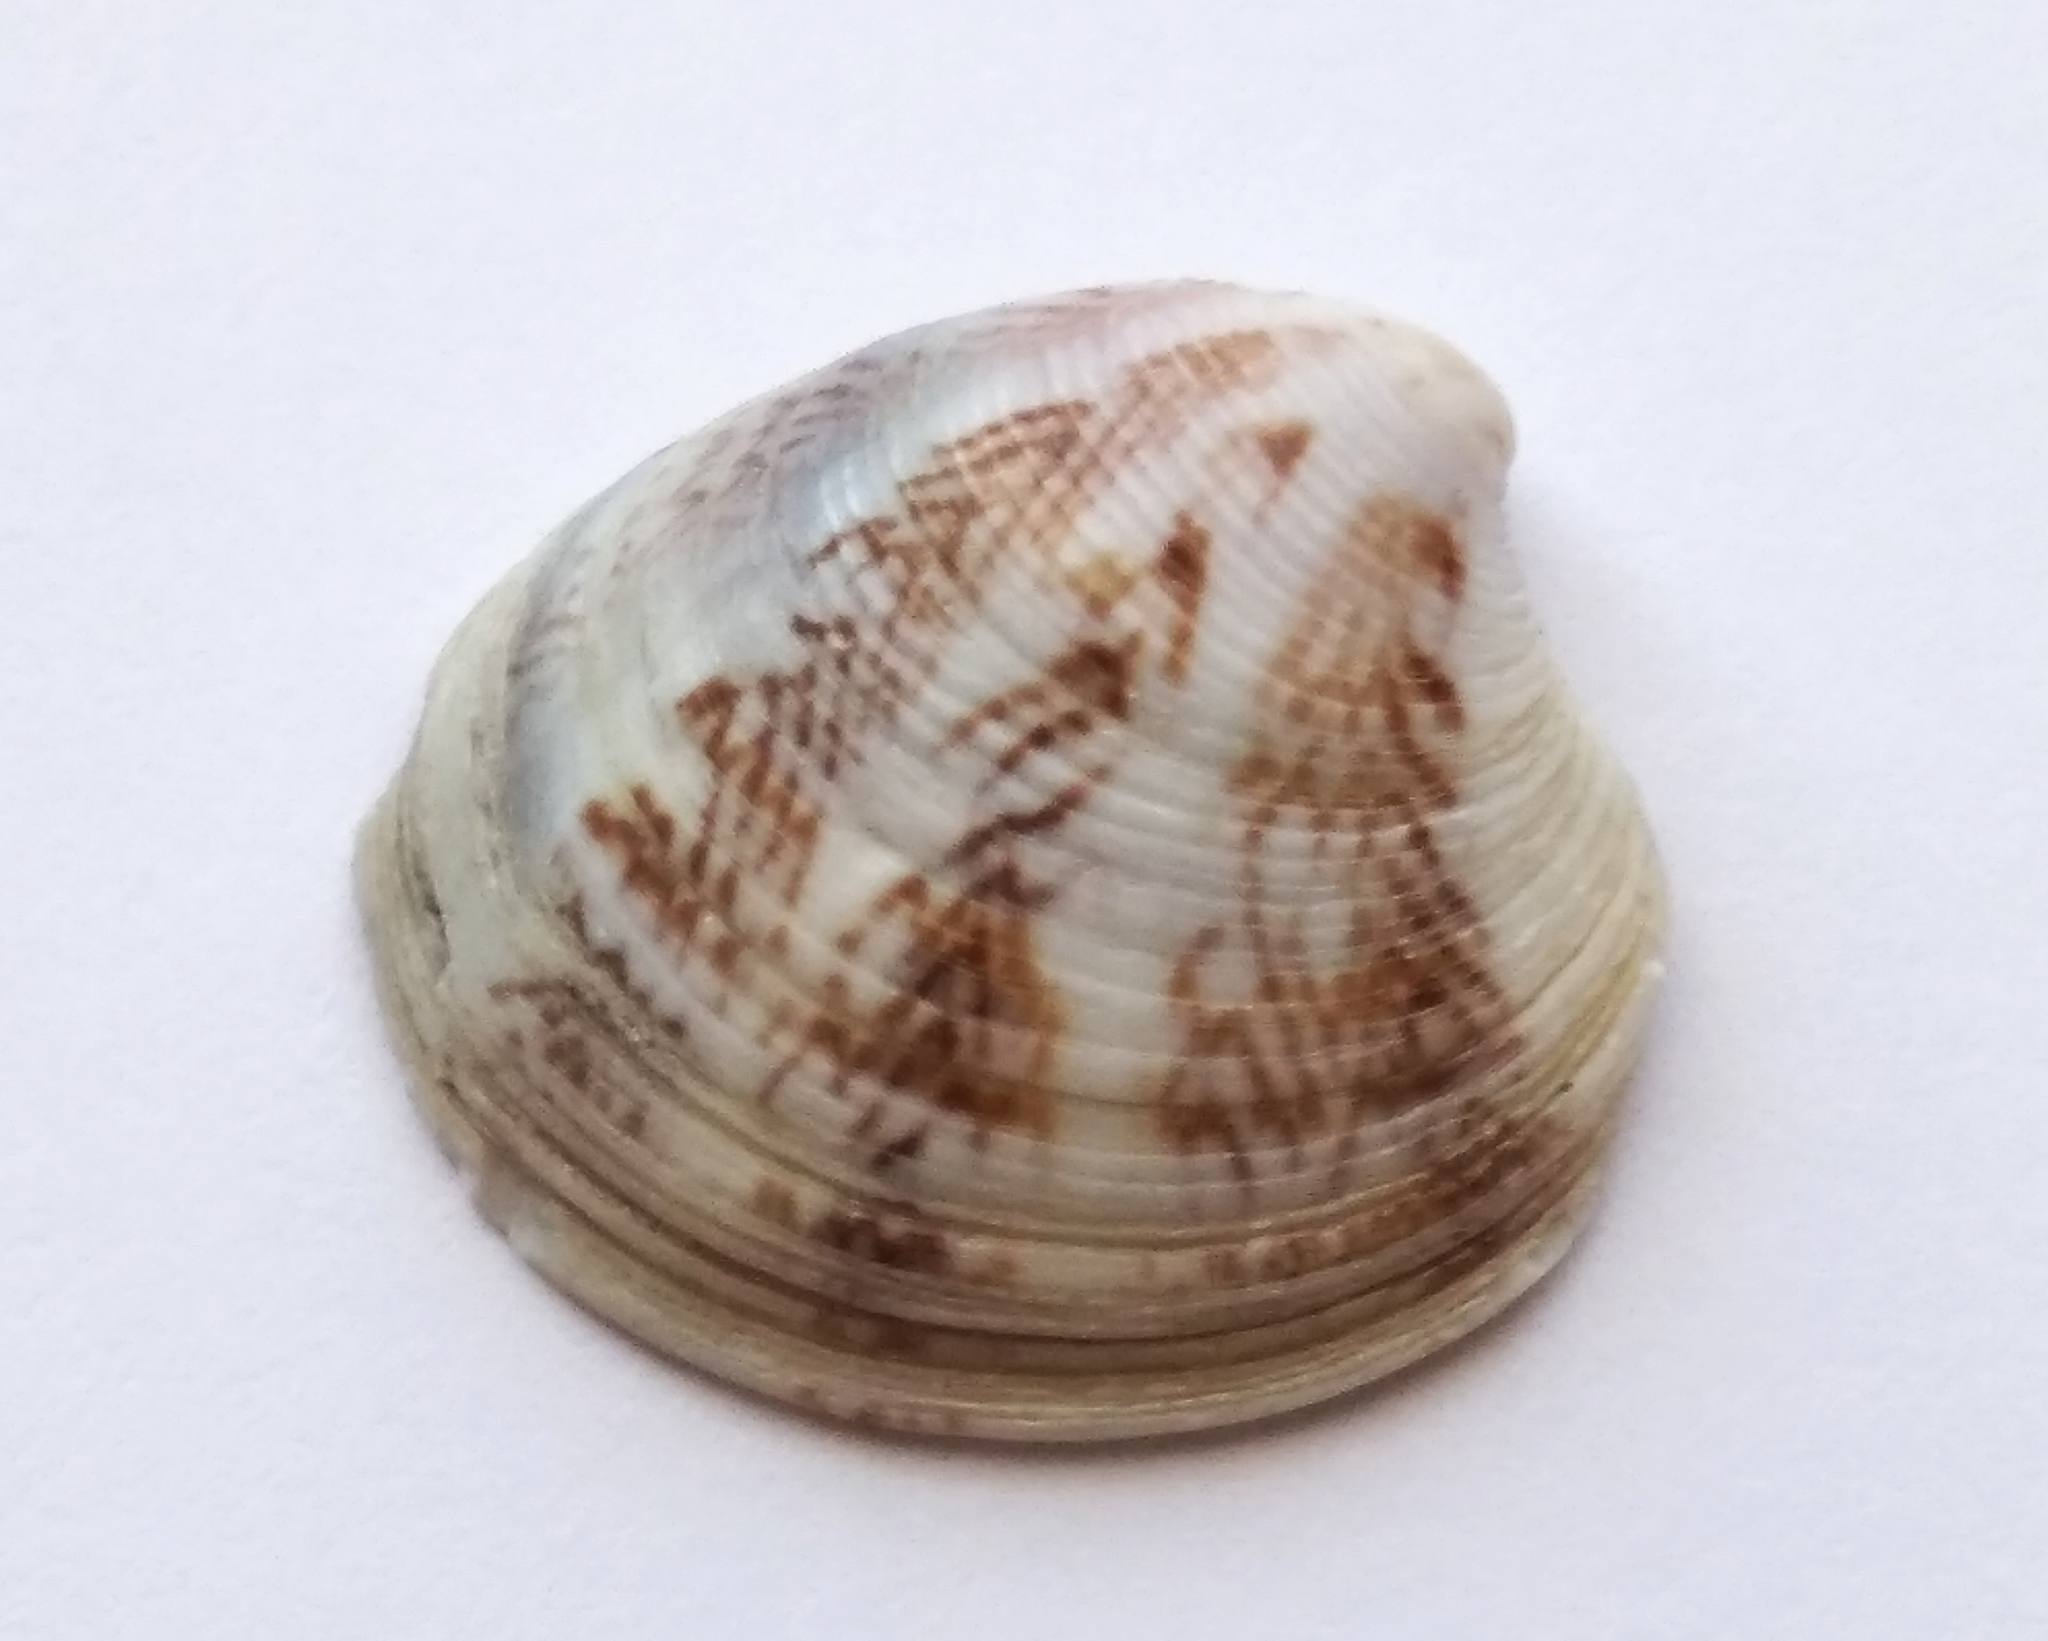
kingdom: Animalia
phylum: Mollusca
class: Bivalvia
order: Venerida
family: Veneridae
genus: Chamelea
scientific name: Chamelea gallina
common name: Chicken venus
